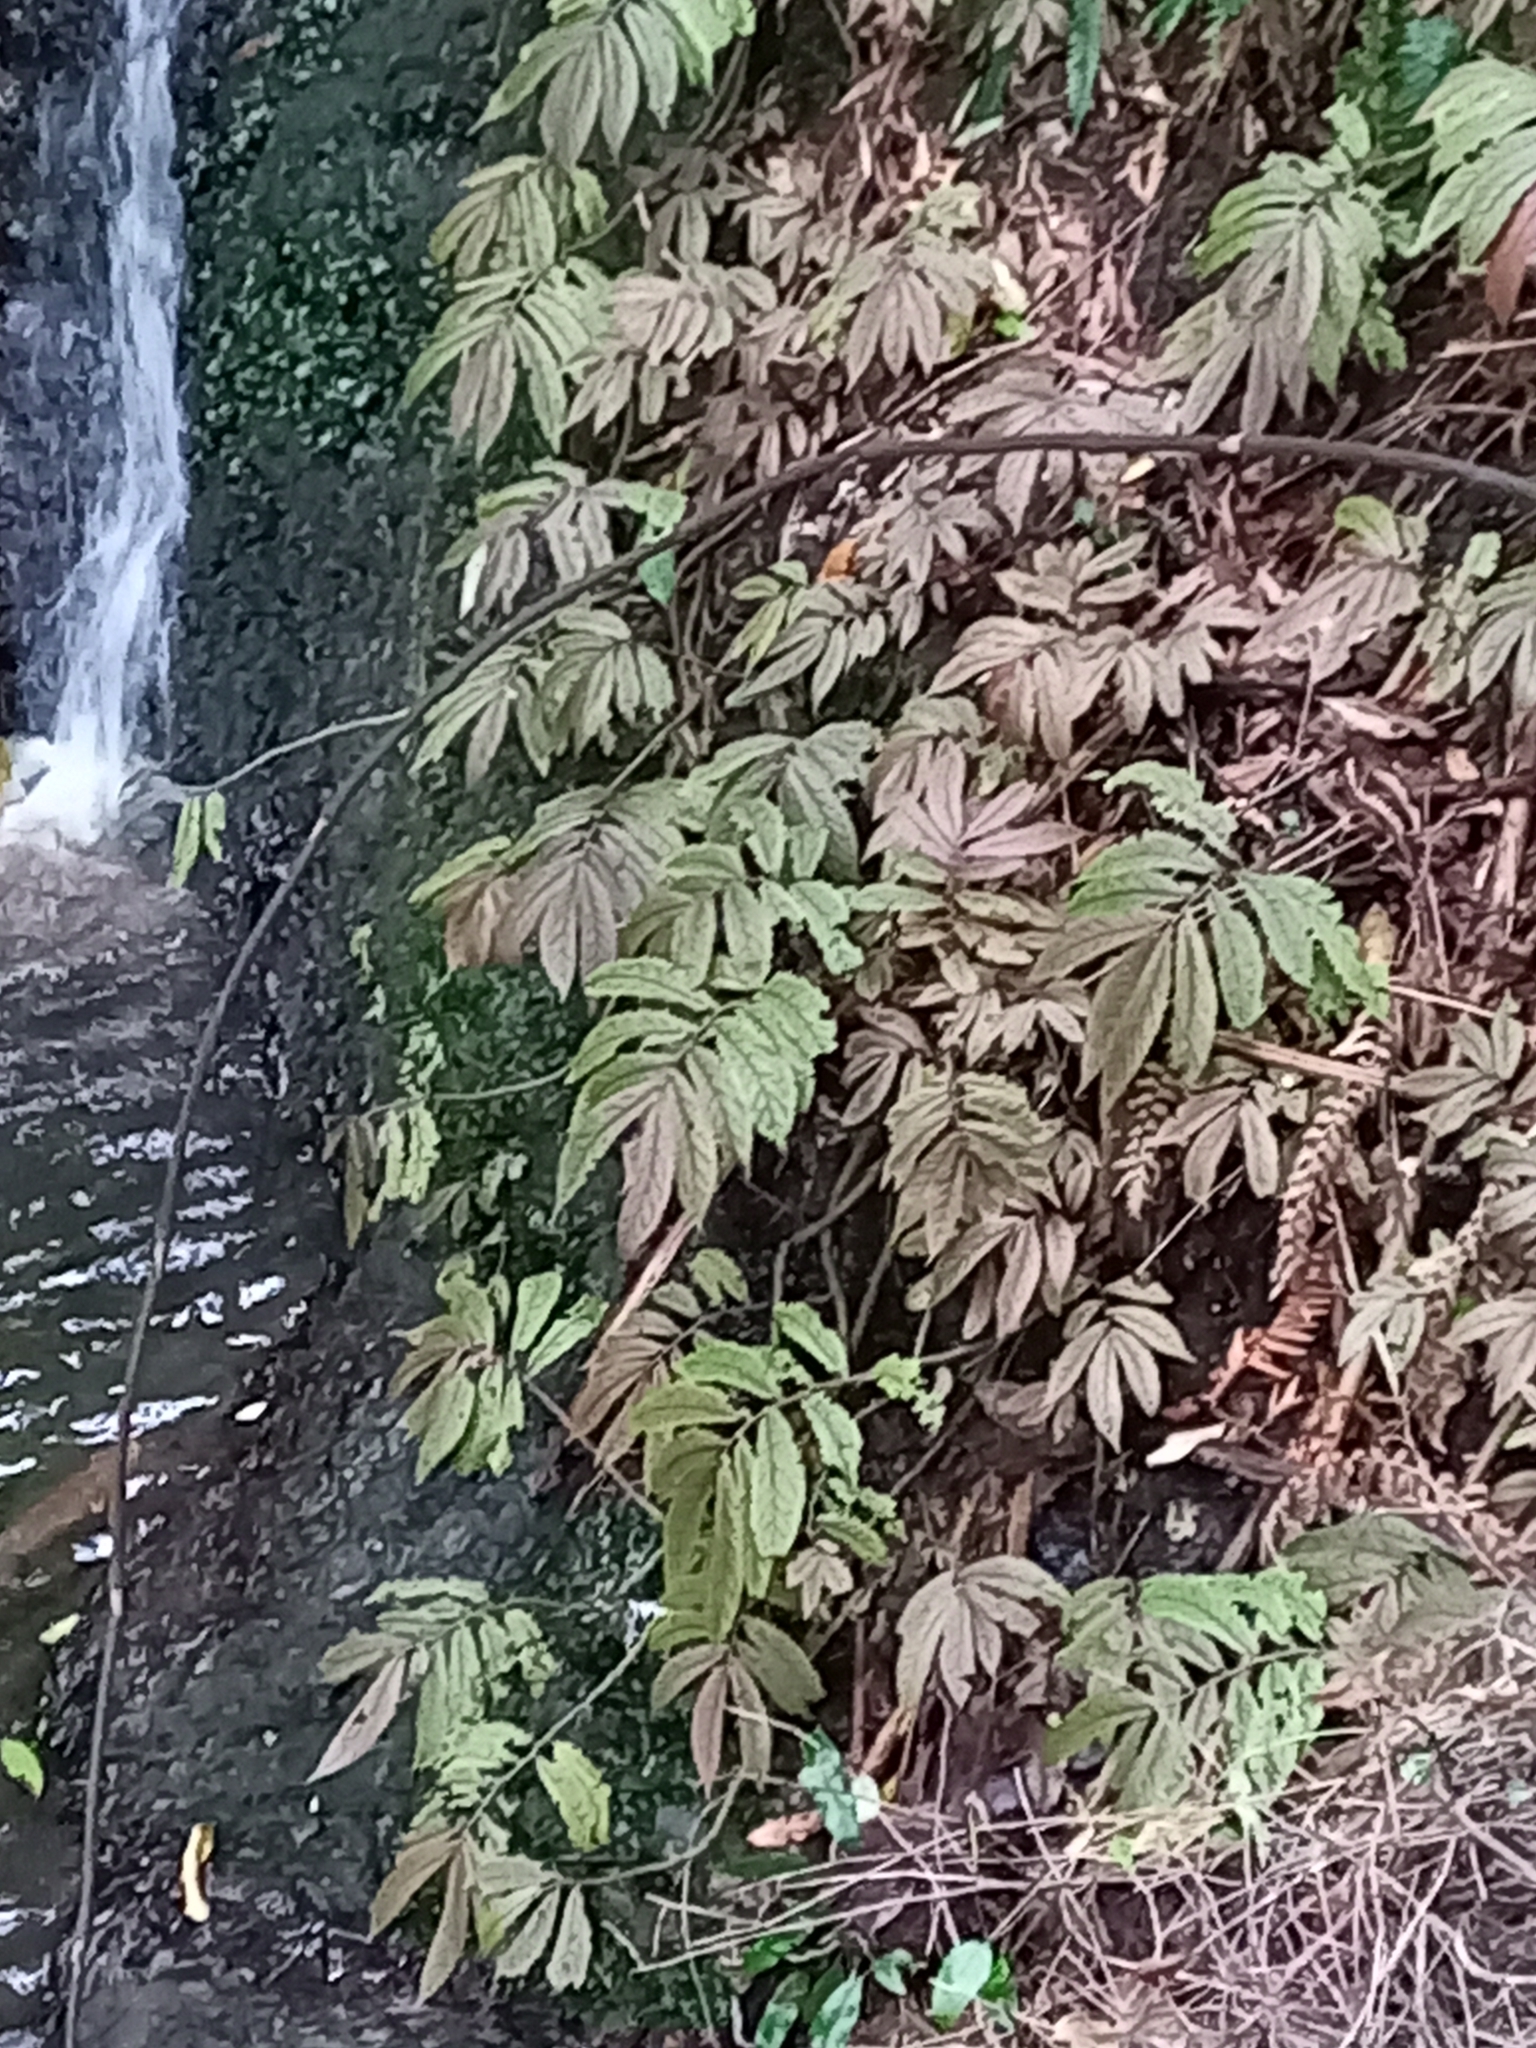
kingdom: Plantae
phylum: Tracheophyta
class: Magnoliopsida
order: Rosales
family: Urticaceae
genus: Elatostema
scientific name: Elatostema rugosum
